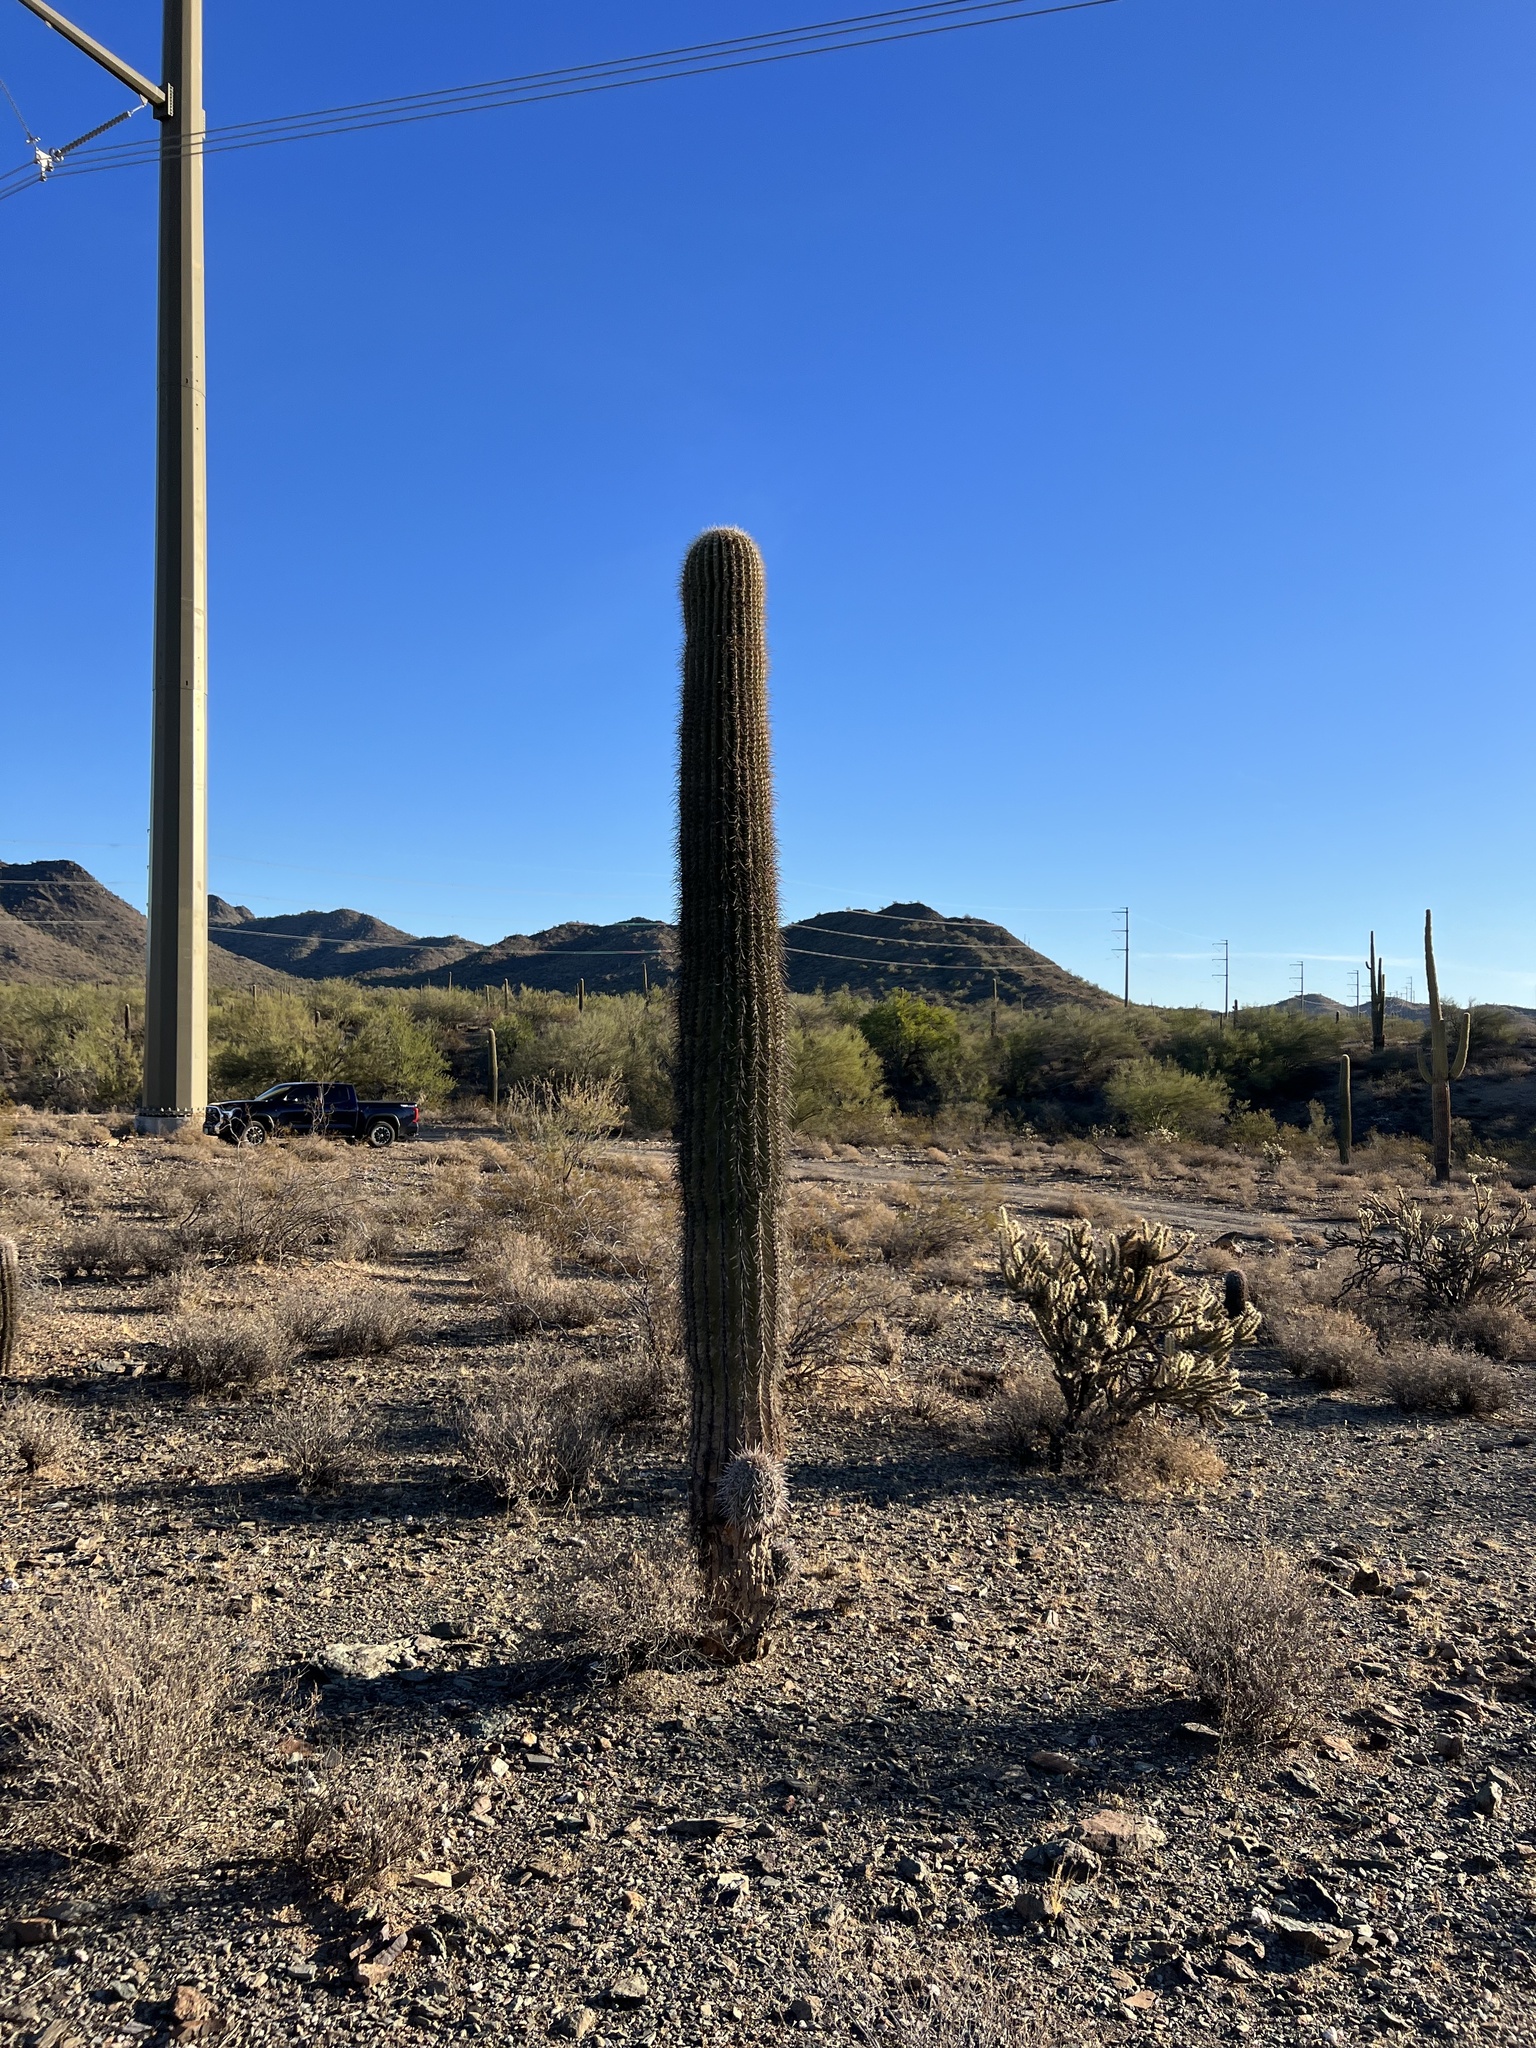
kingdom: Plantae
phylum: Tracheophyta
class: Magnoliopsida
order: Caryophyllales
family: Cactaceae
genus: Carnegiea
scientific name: Carnegiea gigantea
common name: Saguaro
